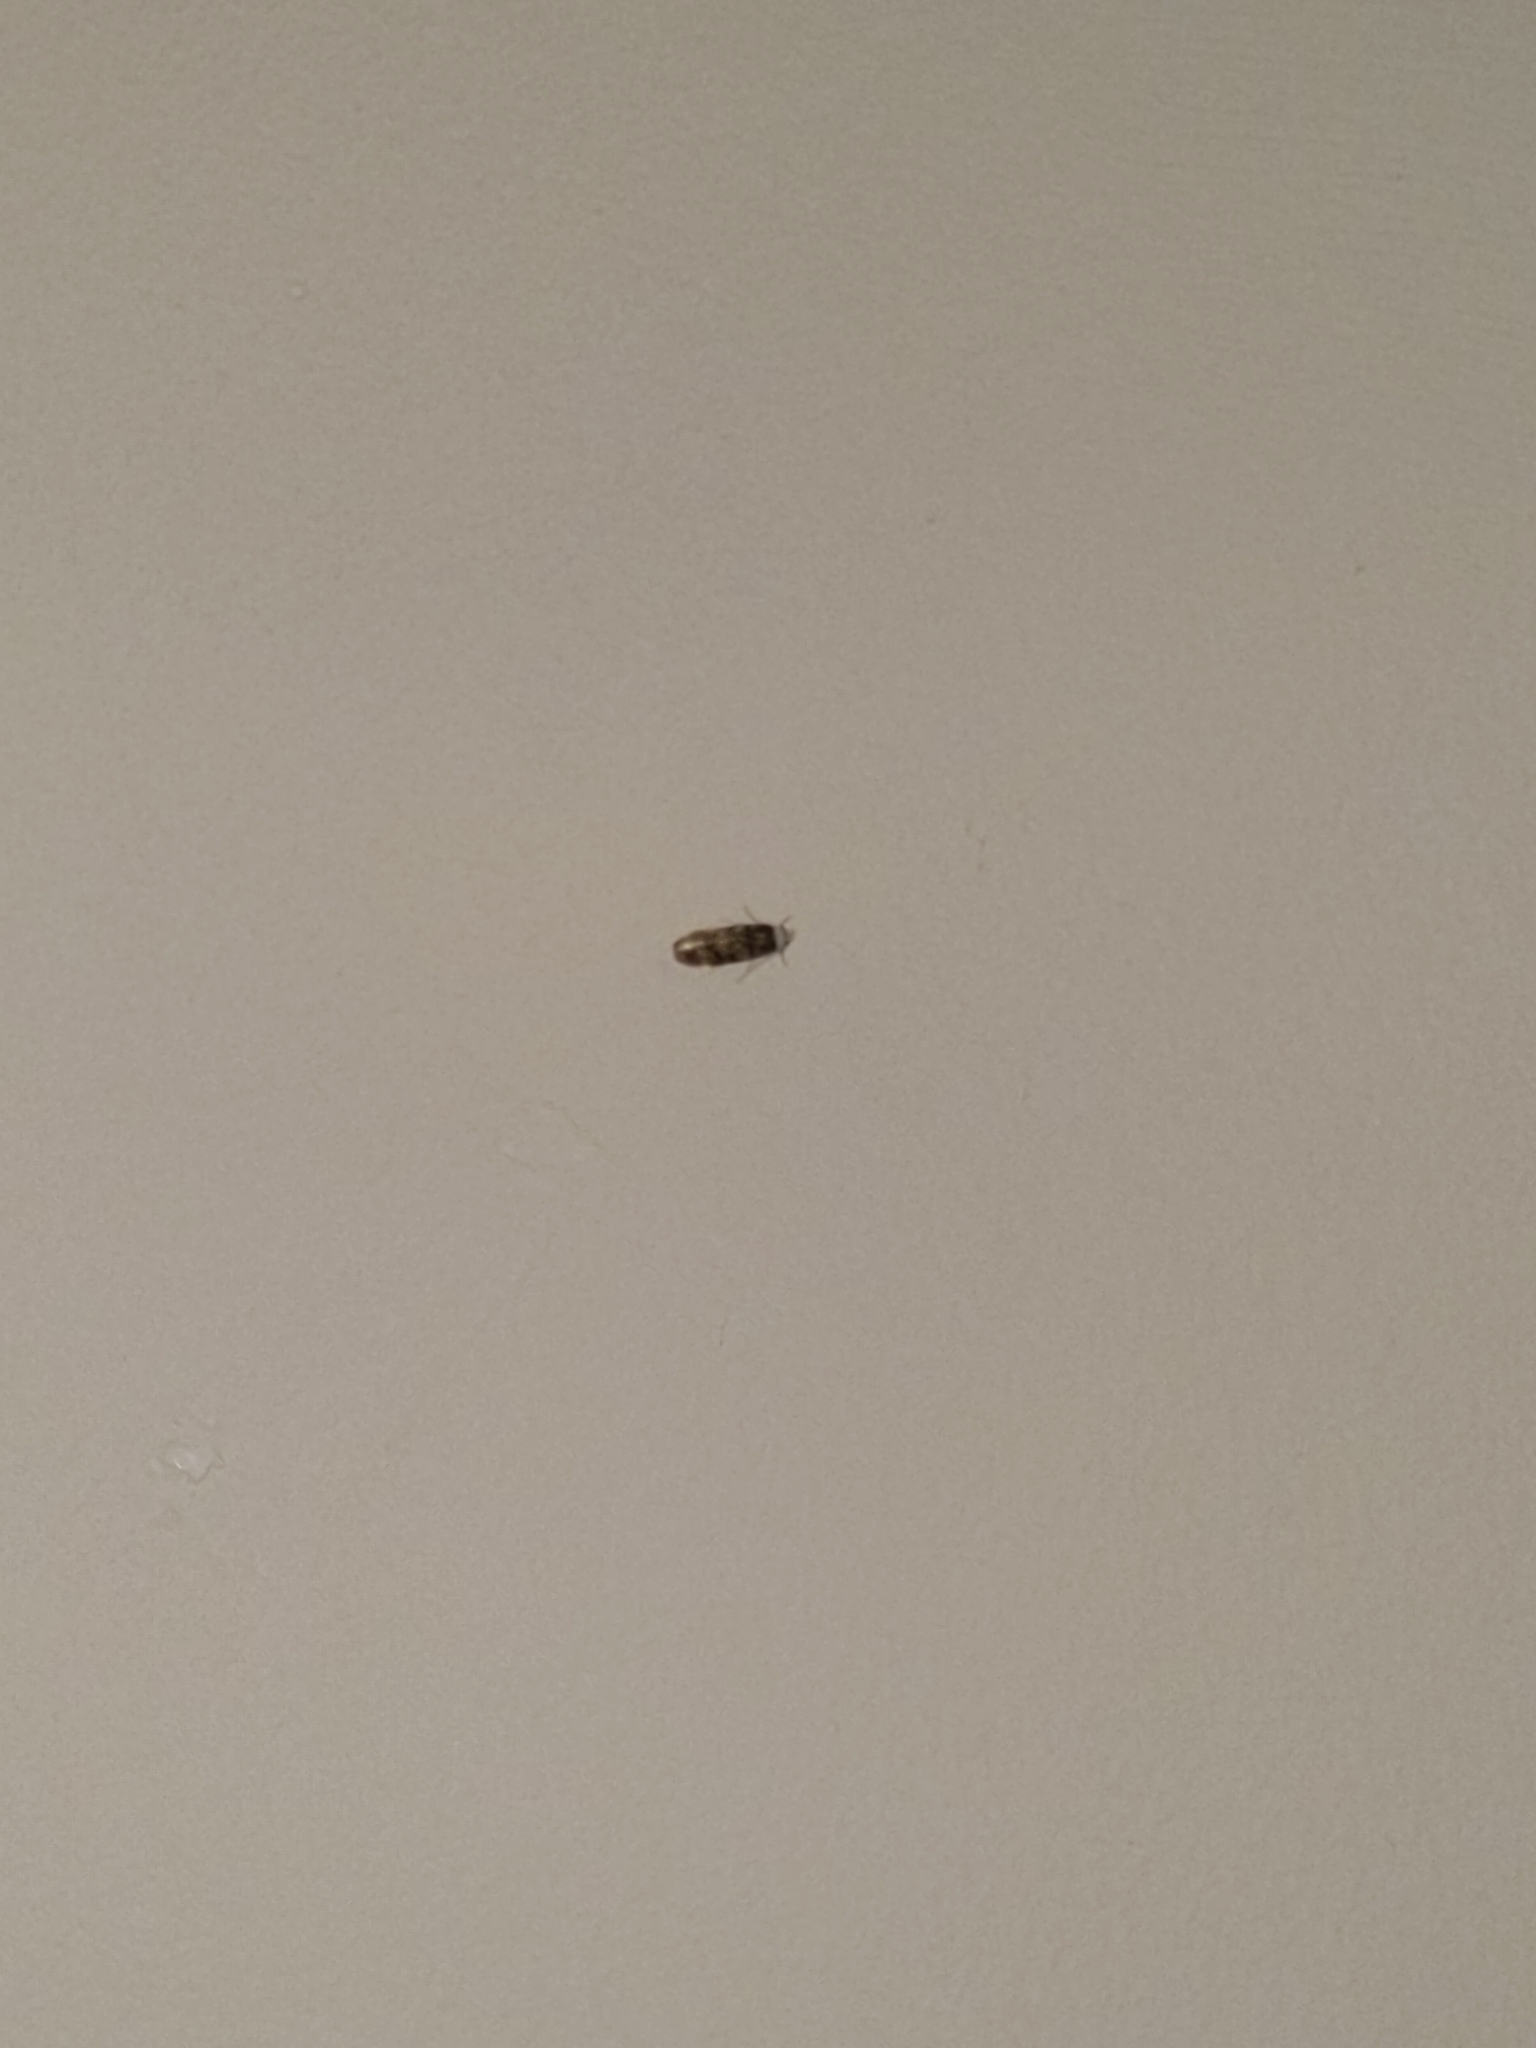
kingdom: Animalia
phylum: Arthropoda
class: Insecta
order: Lepidoptera
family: Oecophoridae
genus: Endrosis
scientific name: Endrosis sarcitrella
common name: White-shouldered house moth
